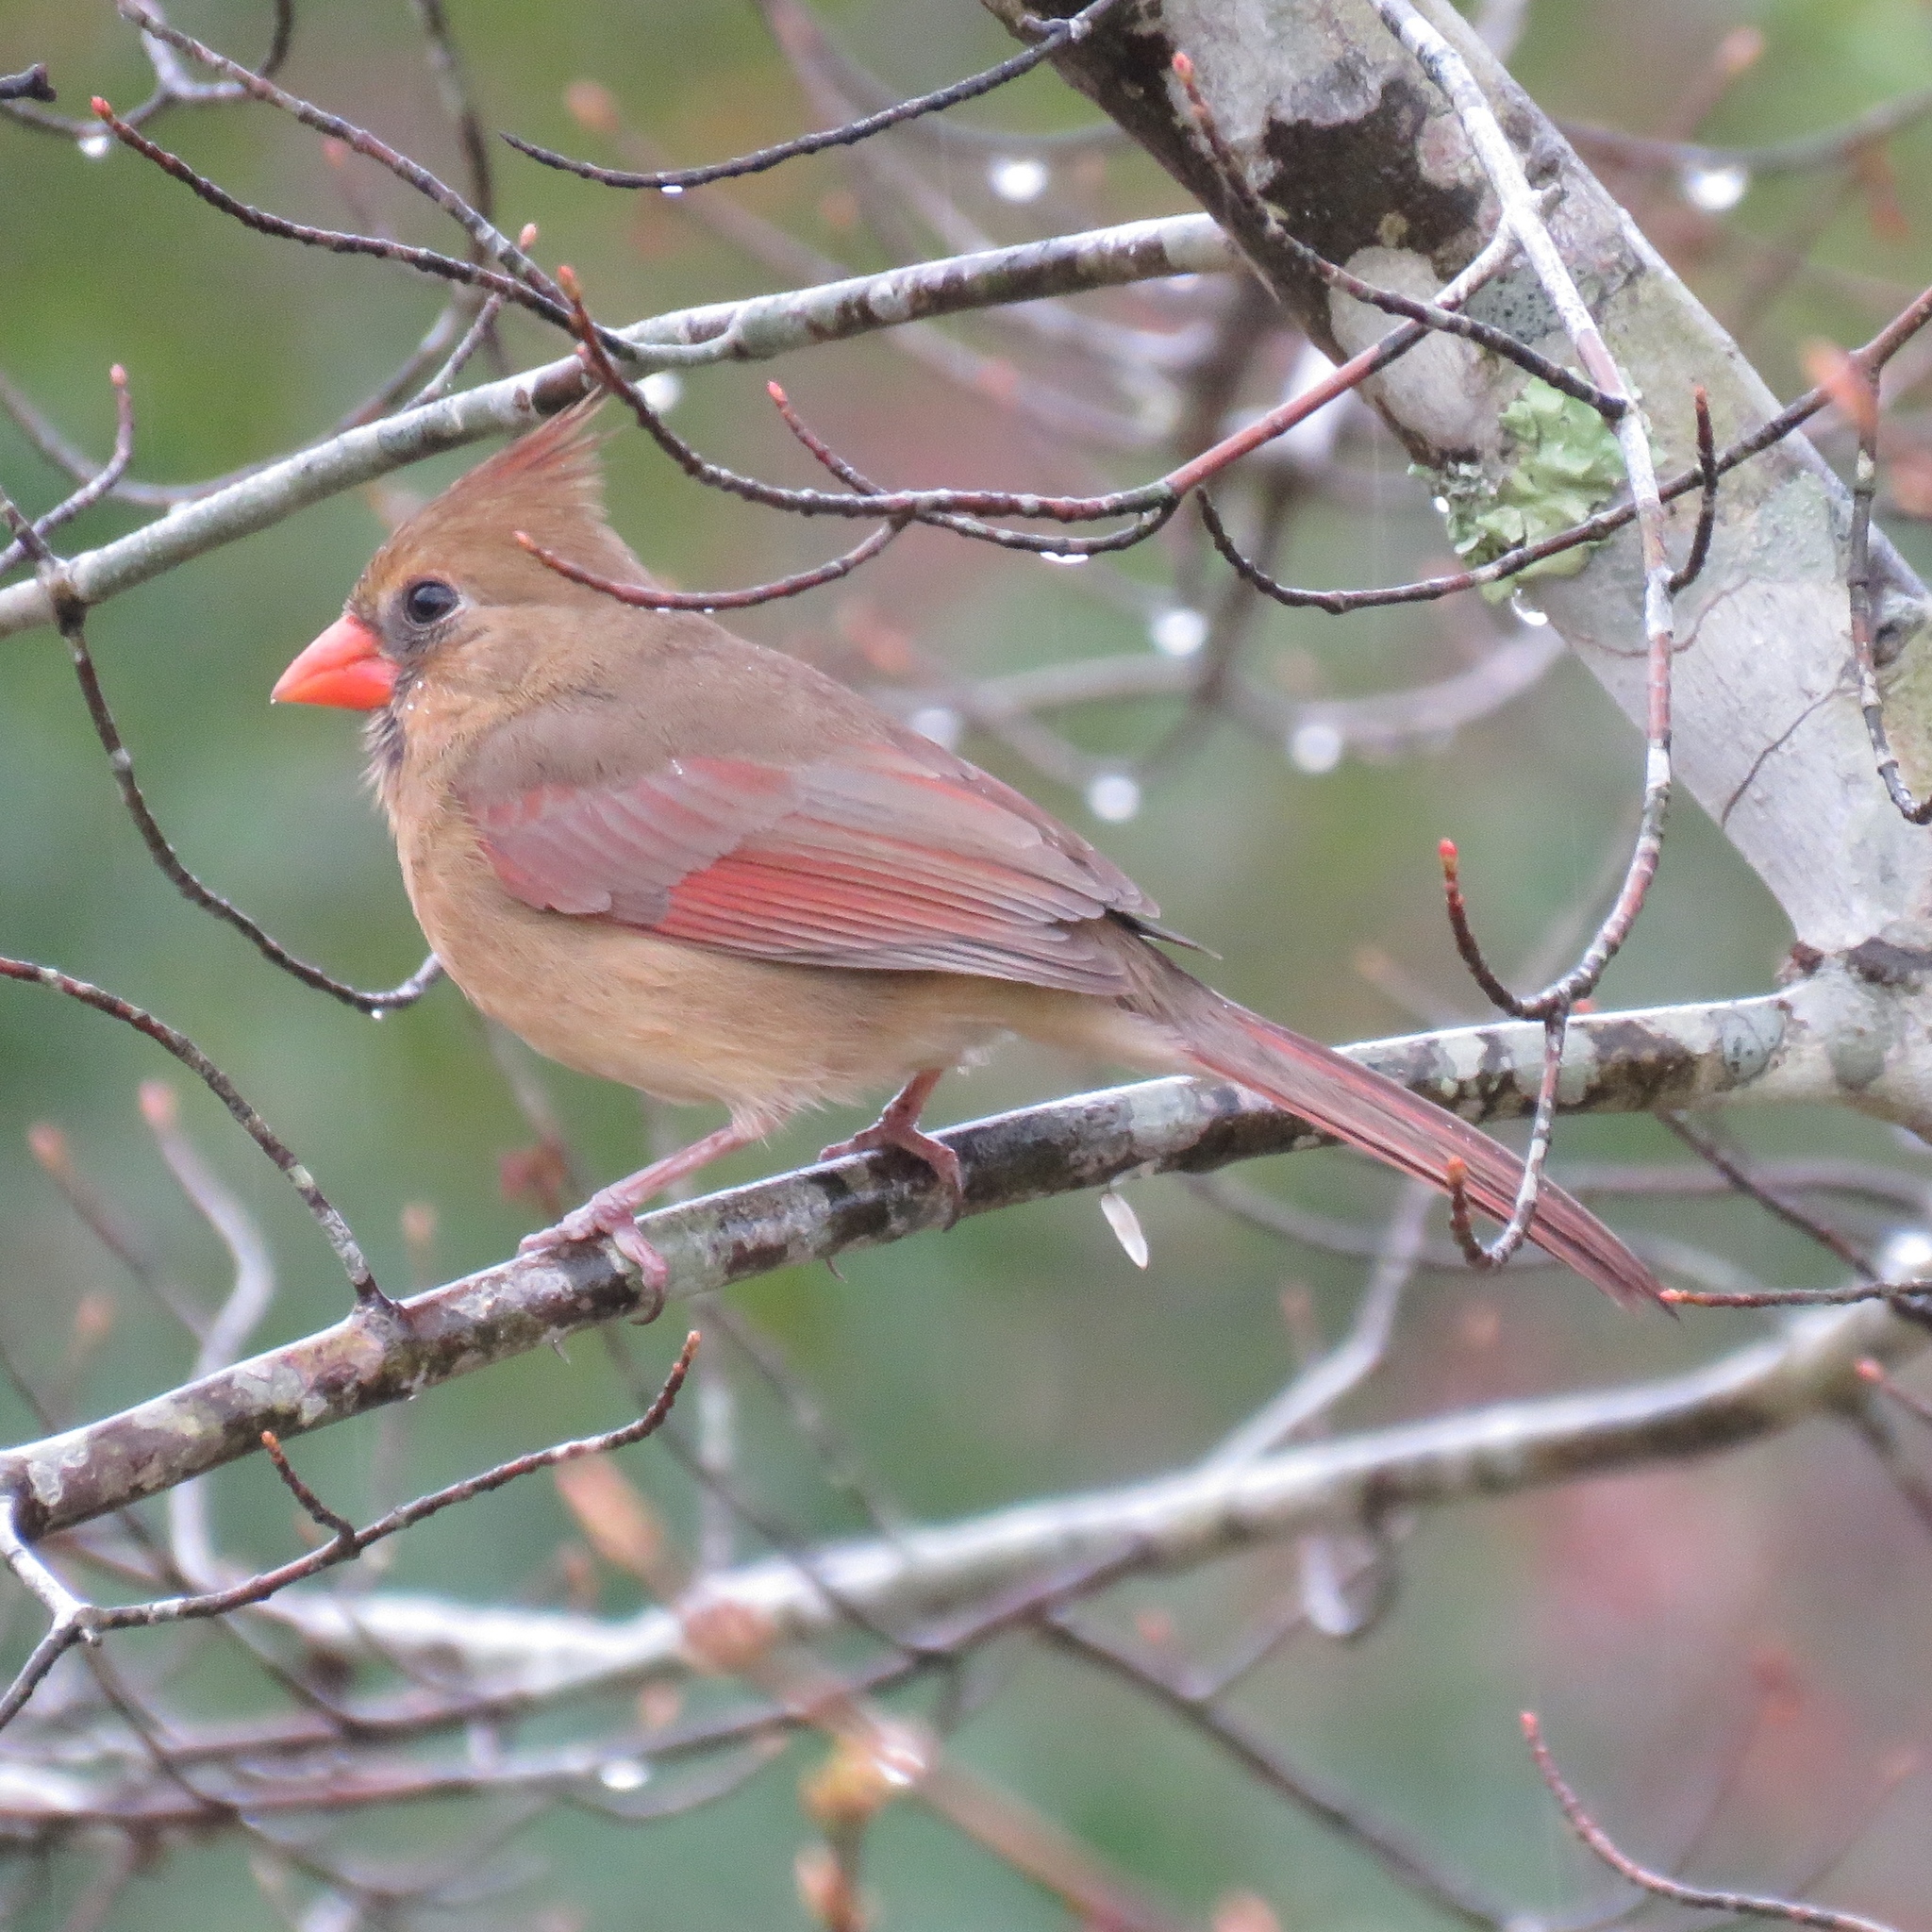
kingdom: Animalia
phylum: Chordata
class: Aves
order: Passeriformes
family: Cardinalidae
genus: Cardinalis
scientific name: Cardinalis cardinalis
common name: Northern cardinal
